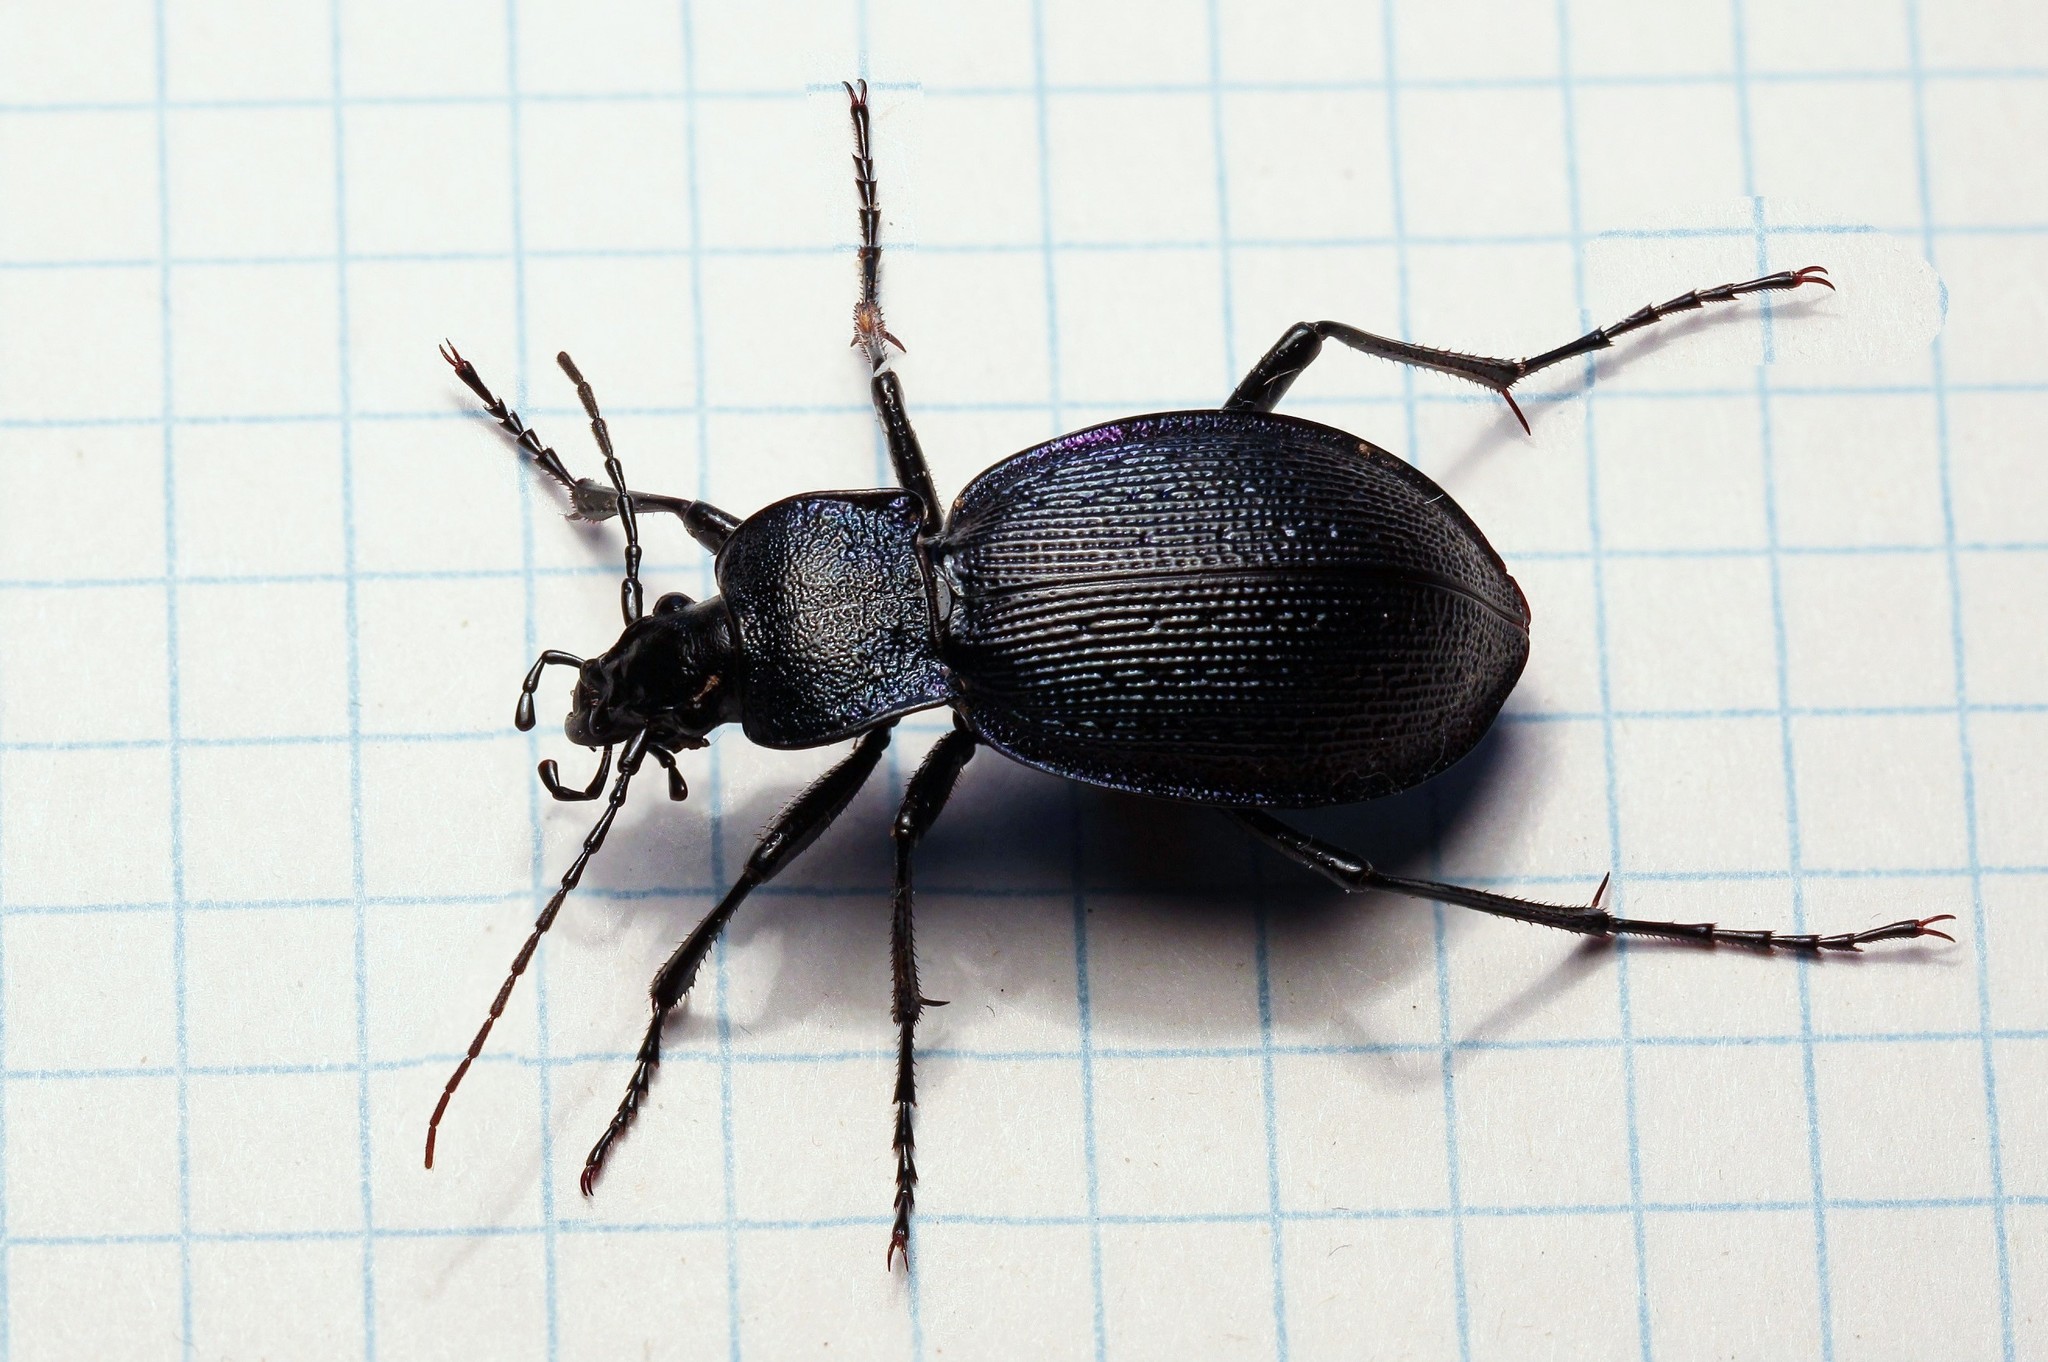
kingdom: Animalia
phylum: Arthropoda
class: Insecta
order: Coleoptera
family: Carabidae
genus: Carabus
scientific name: Carabus gyllenhali
